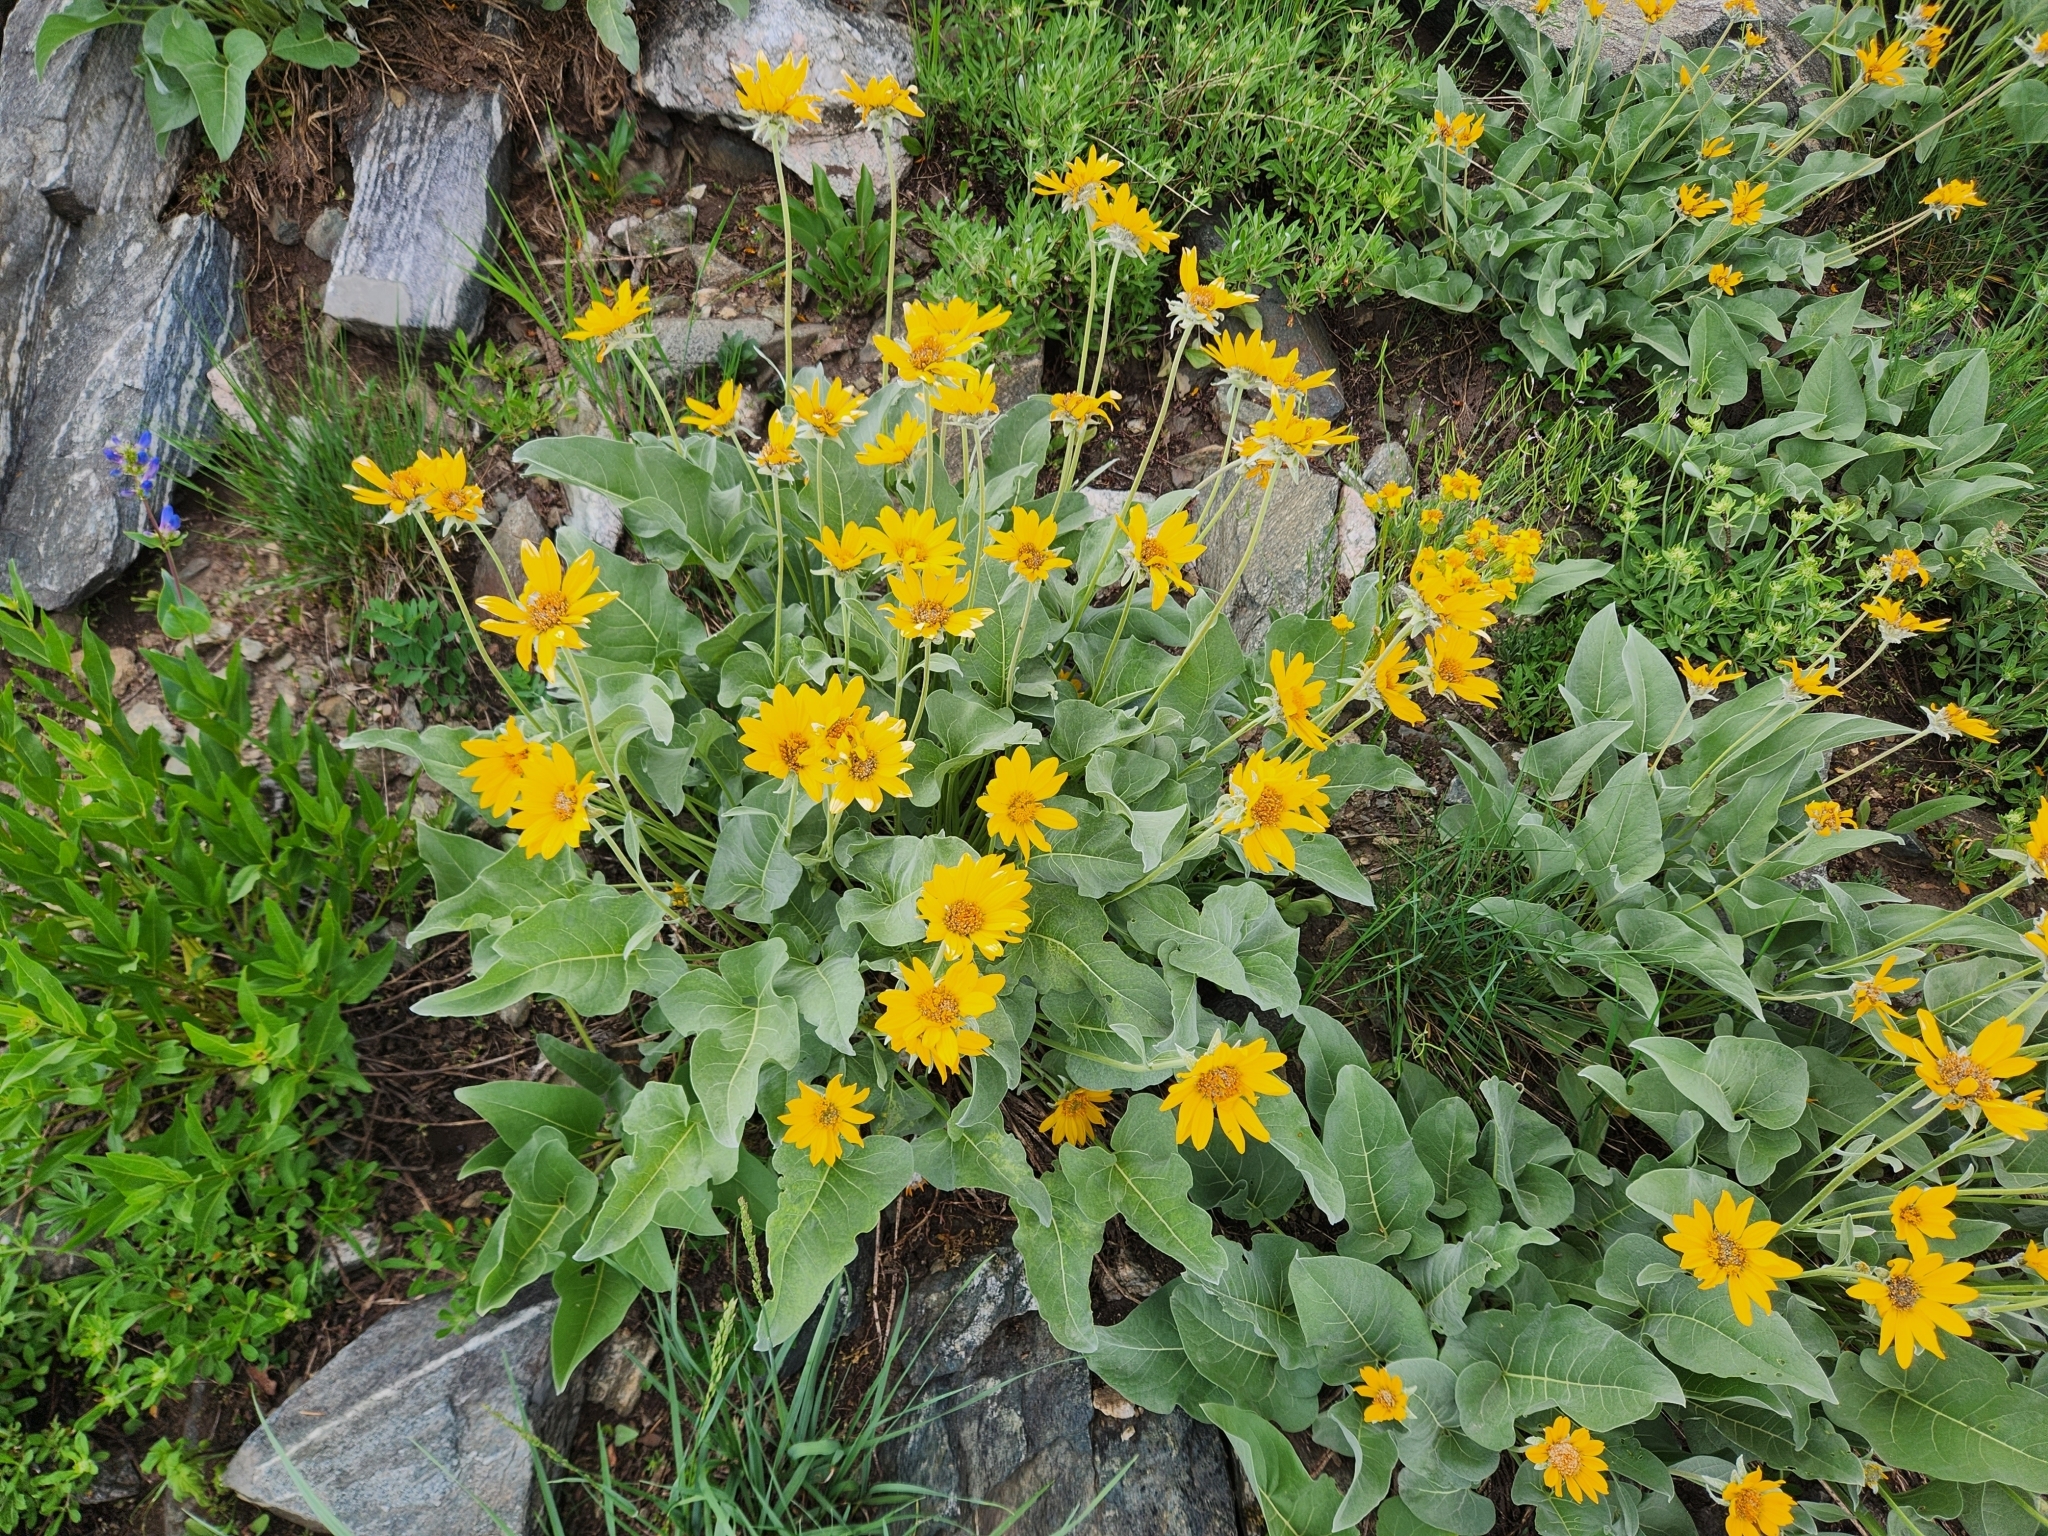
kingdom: Plantae
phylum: Tracheophyta
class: Magnoliopsida
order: Asterales
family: Asteraceae
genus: Wyethia
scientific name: Wyethia sagittata
